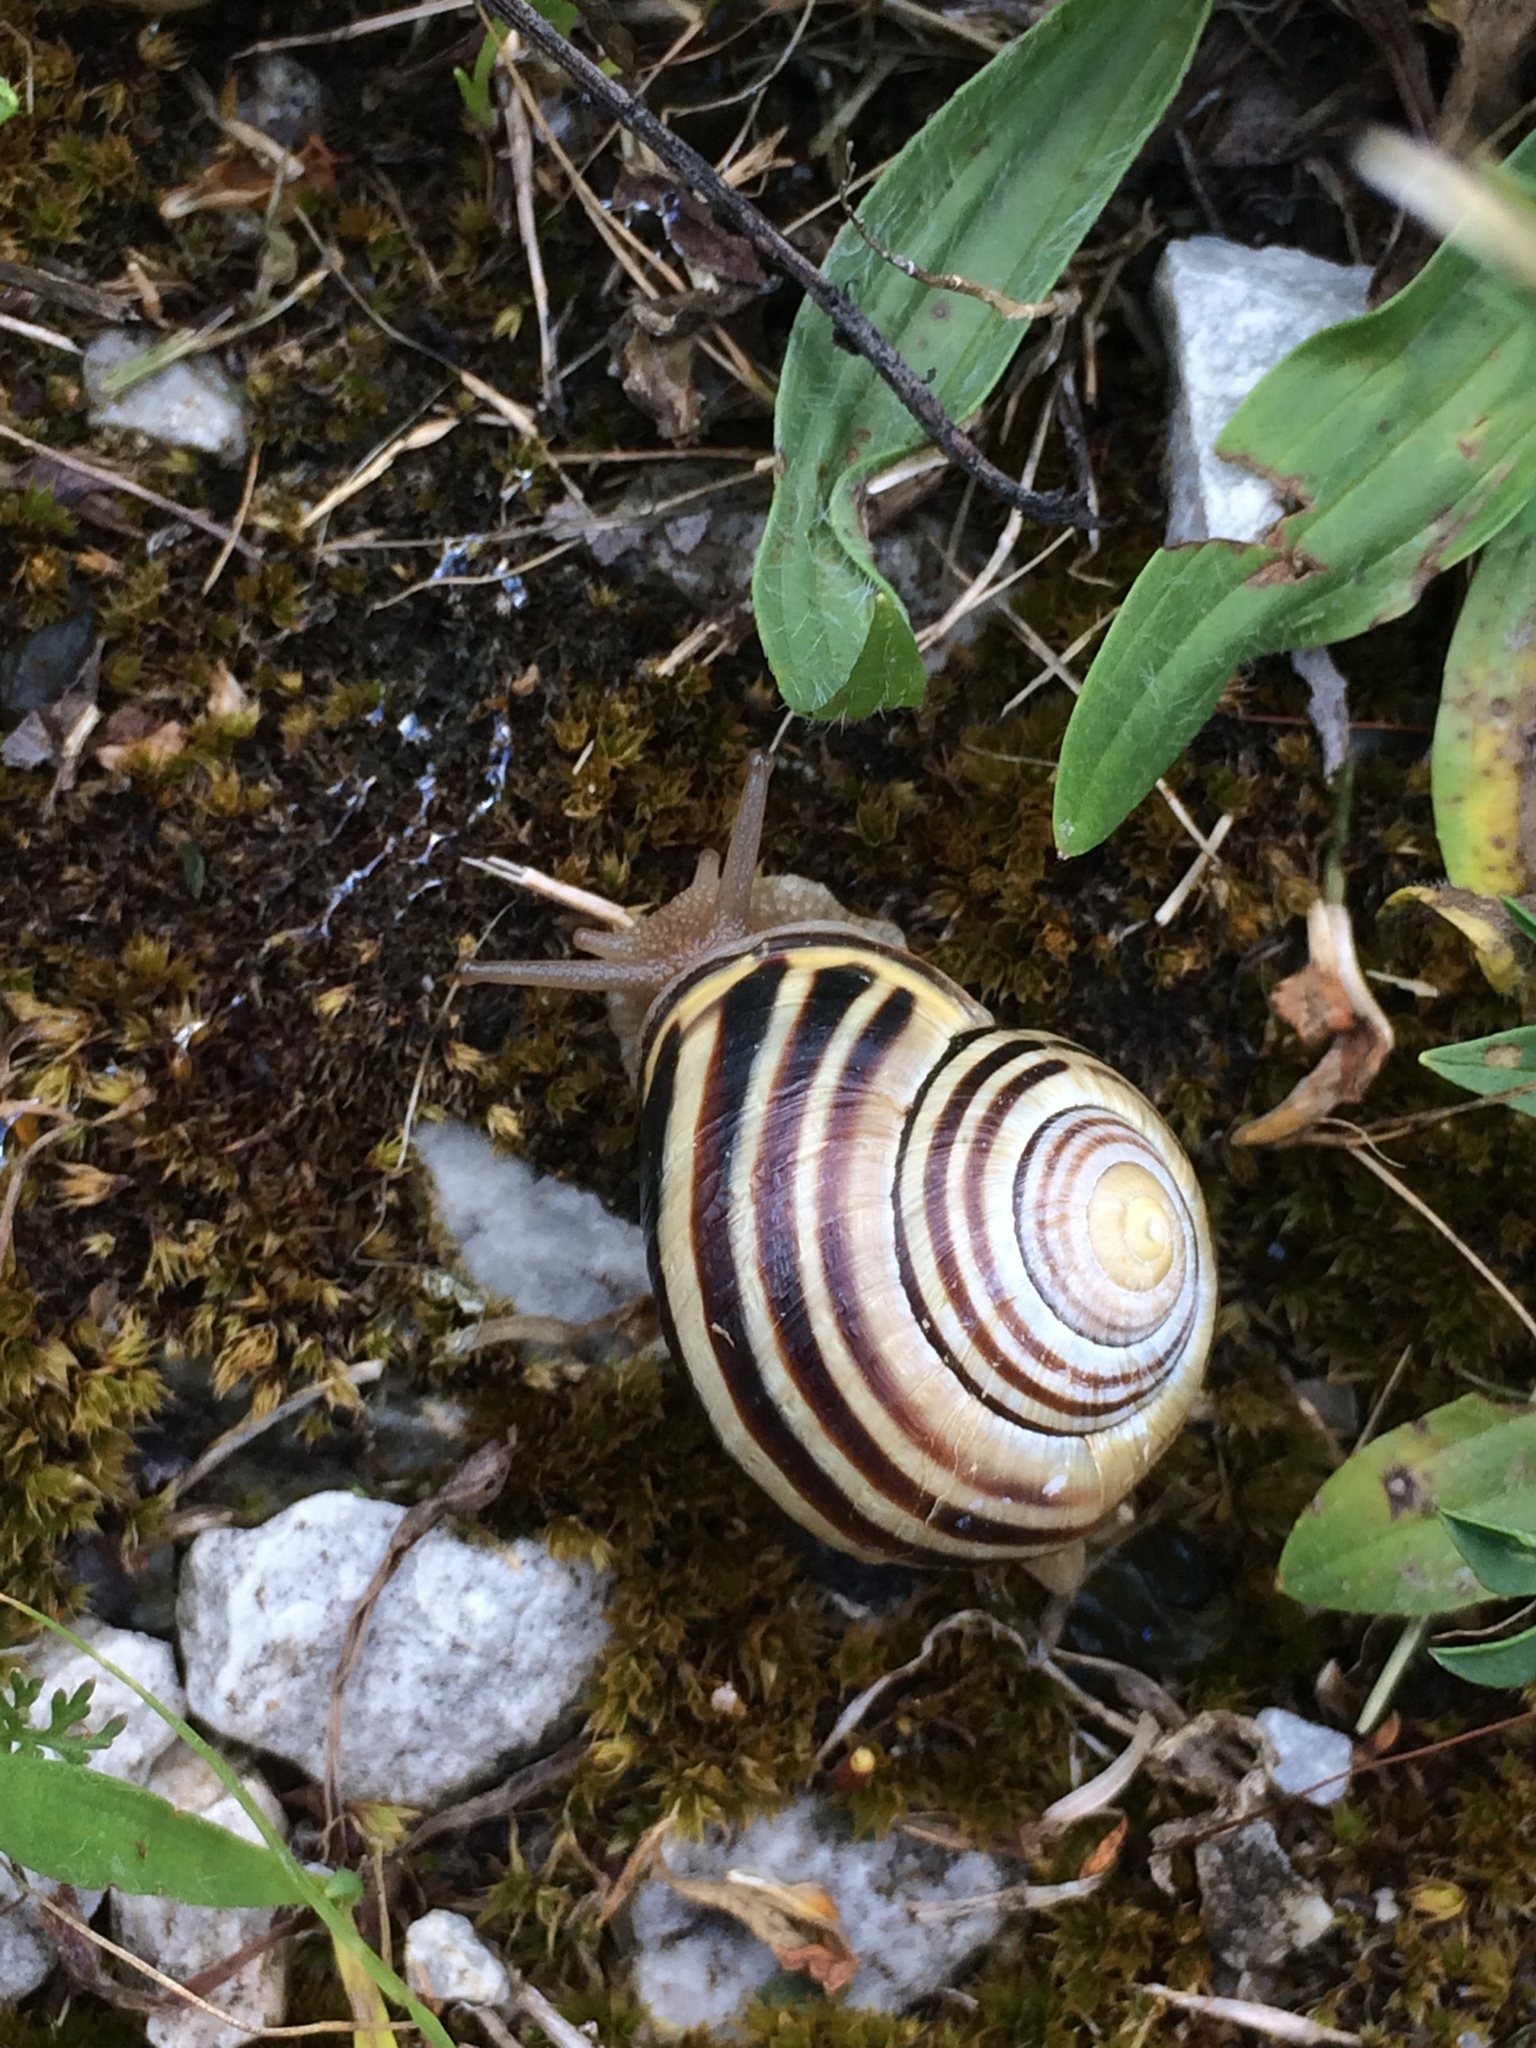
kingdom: Animalia
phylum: Mollusca
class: Gastropoda
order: Stylommatophora
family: Helicidae
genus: Cepaea
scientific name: Cepaea nemoralis
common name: Grovesnail
